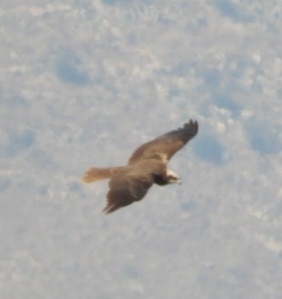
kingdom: Animalia
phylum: Chordata
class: Aves
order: Accipitriformes
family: Accipitridae
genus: Circus
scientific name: Circus aeruginosus
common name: Western marsh harrier
